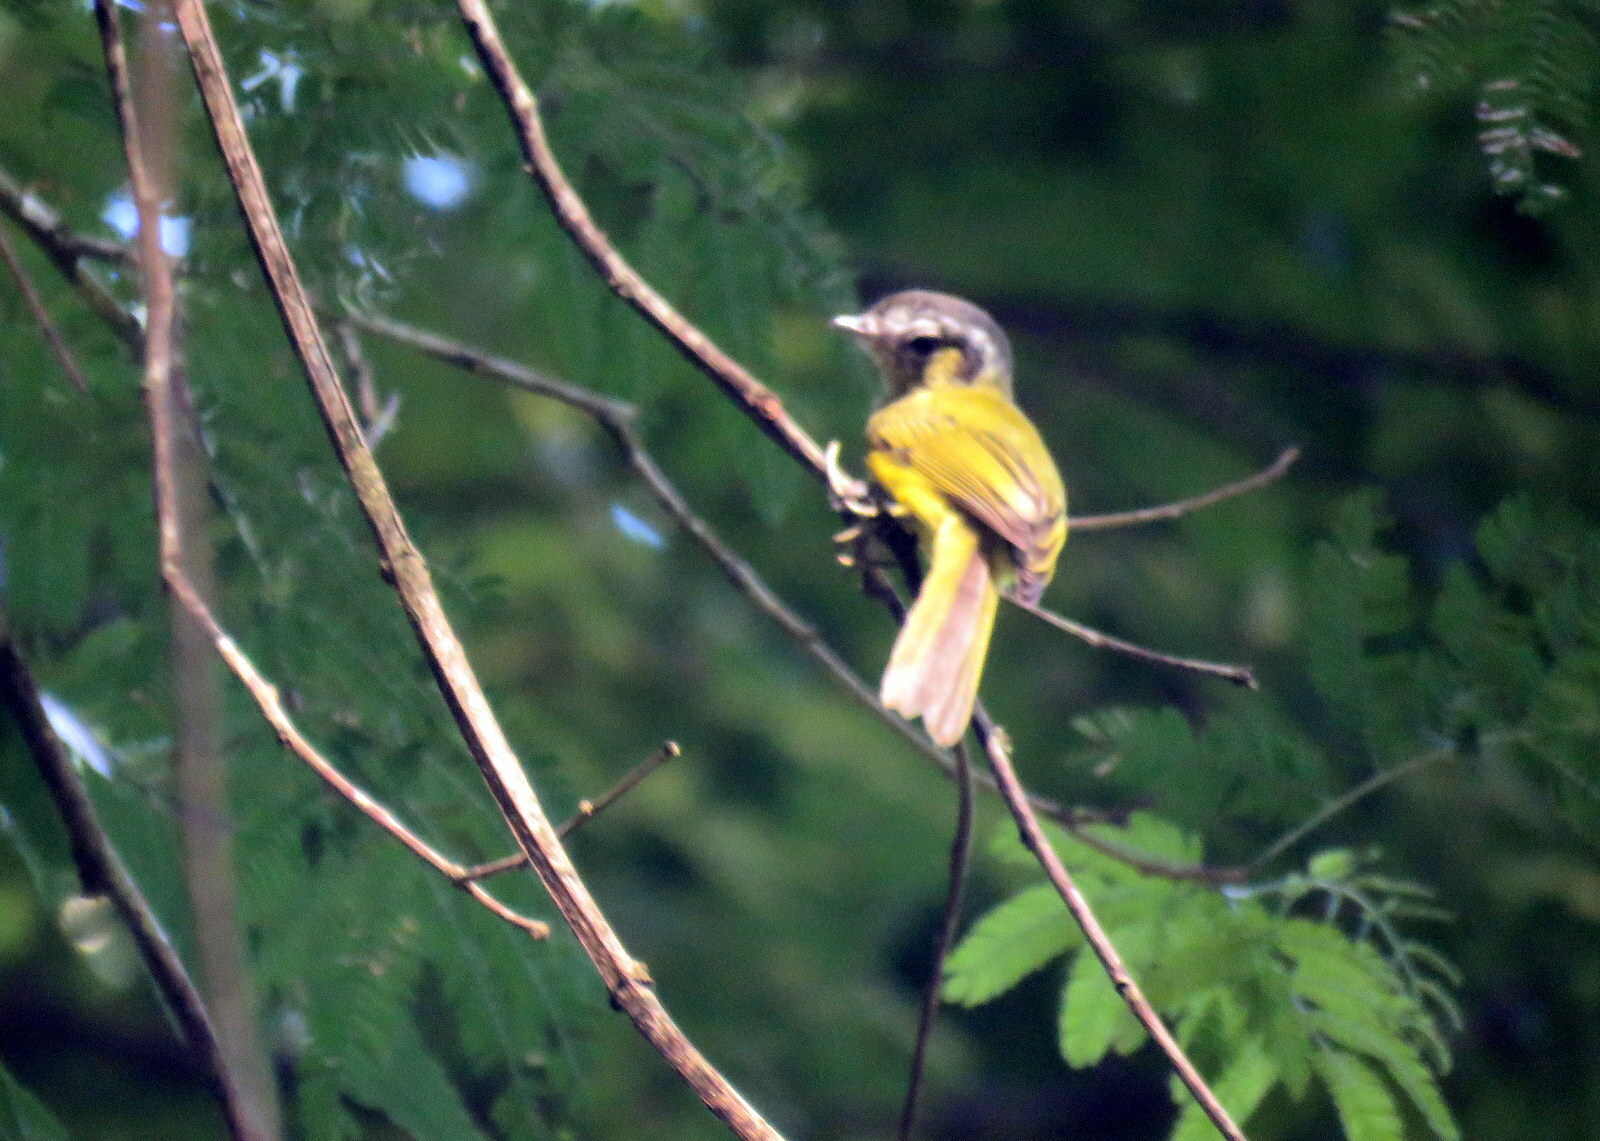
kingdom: Animalia
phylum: Chordata
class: Aves
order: Passeriformes
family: Tyrannidae
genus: Phylloscartes
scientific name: Phylloscartes eximius
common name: Southern bristle-tyrant
